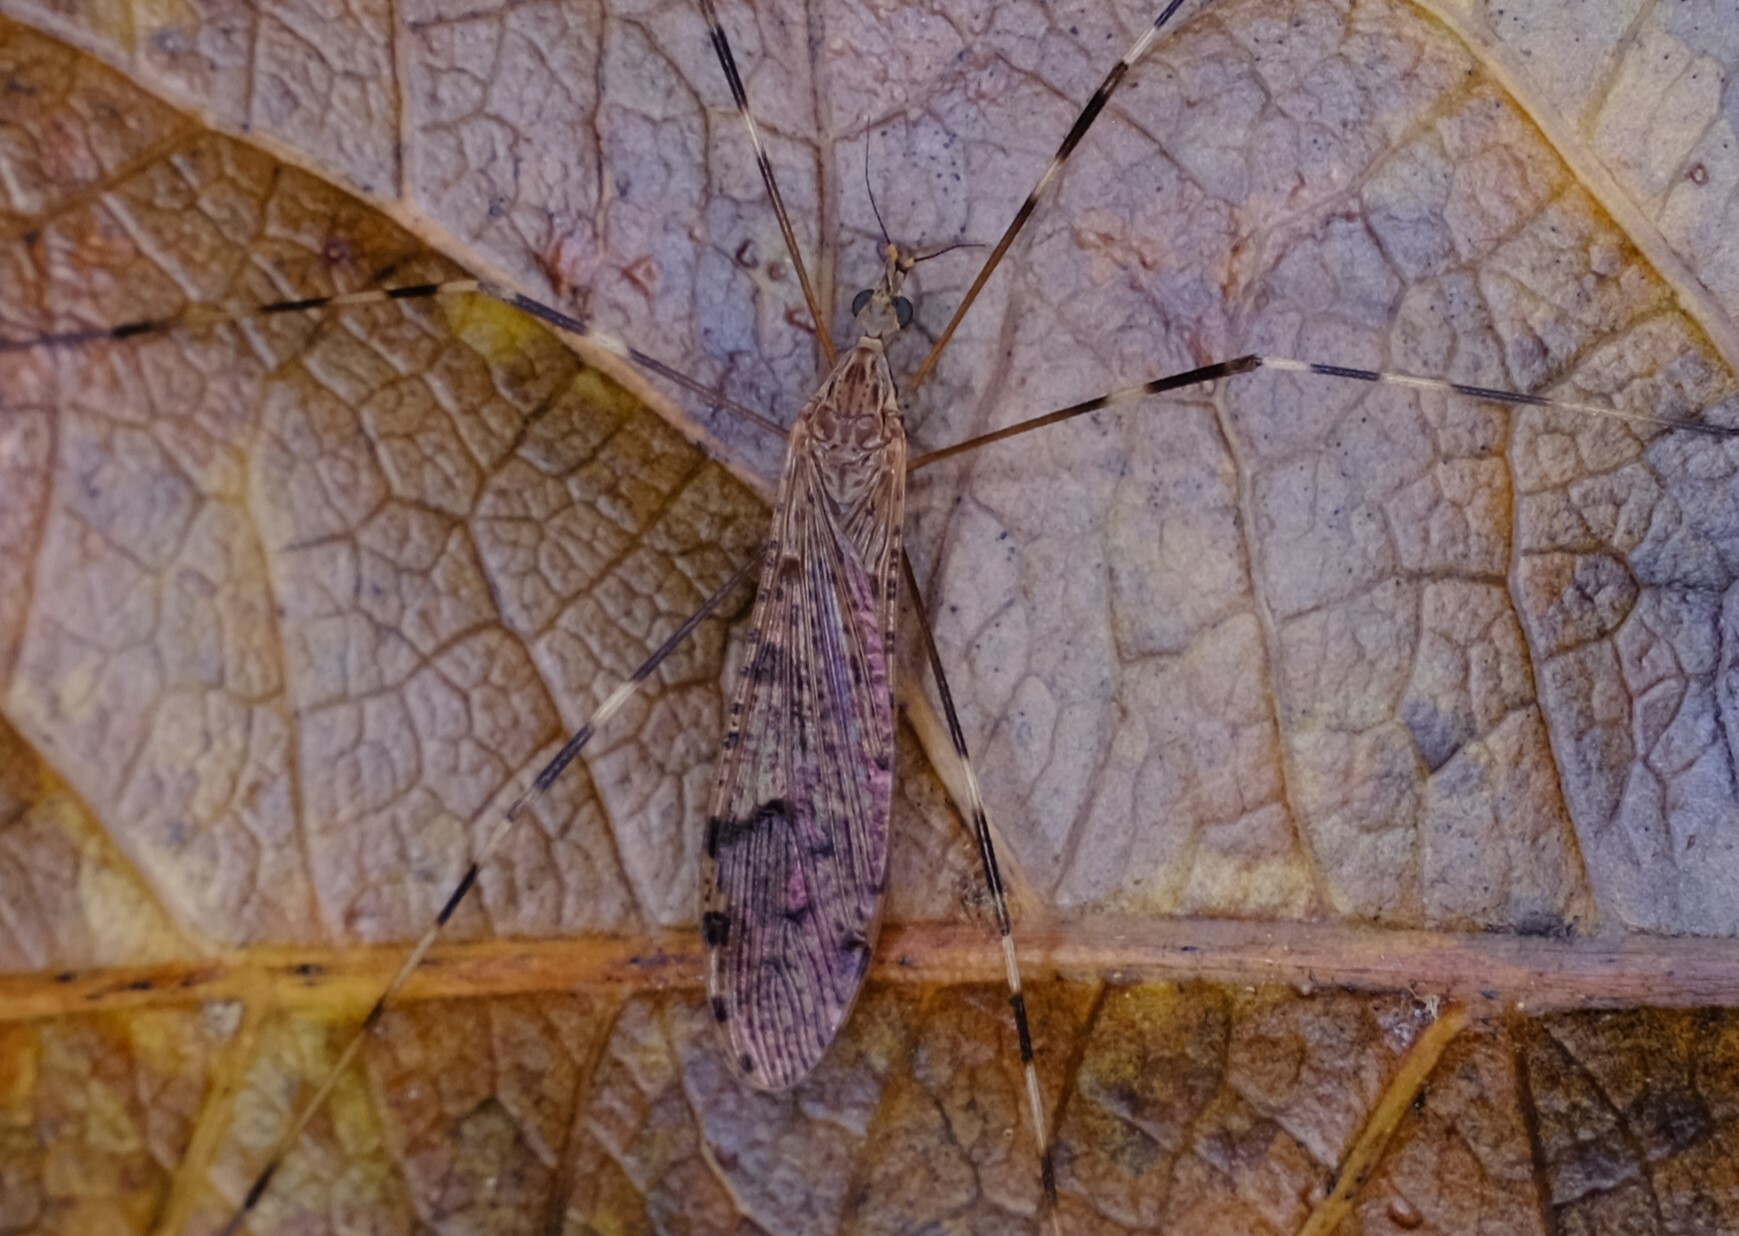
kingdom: Animalia
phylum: Arthropoda
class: Insecta
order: Diptera
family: Limoniidae
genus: Epiphragma
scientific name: Epiphragma hardyi
